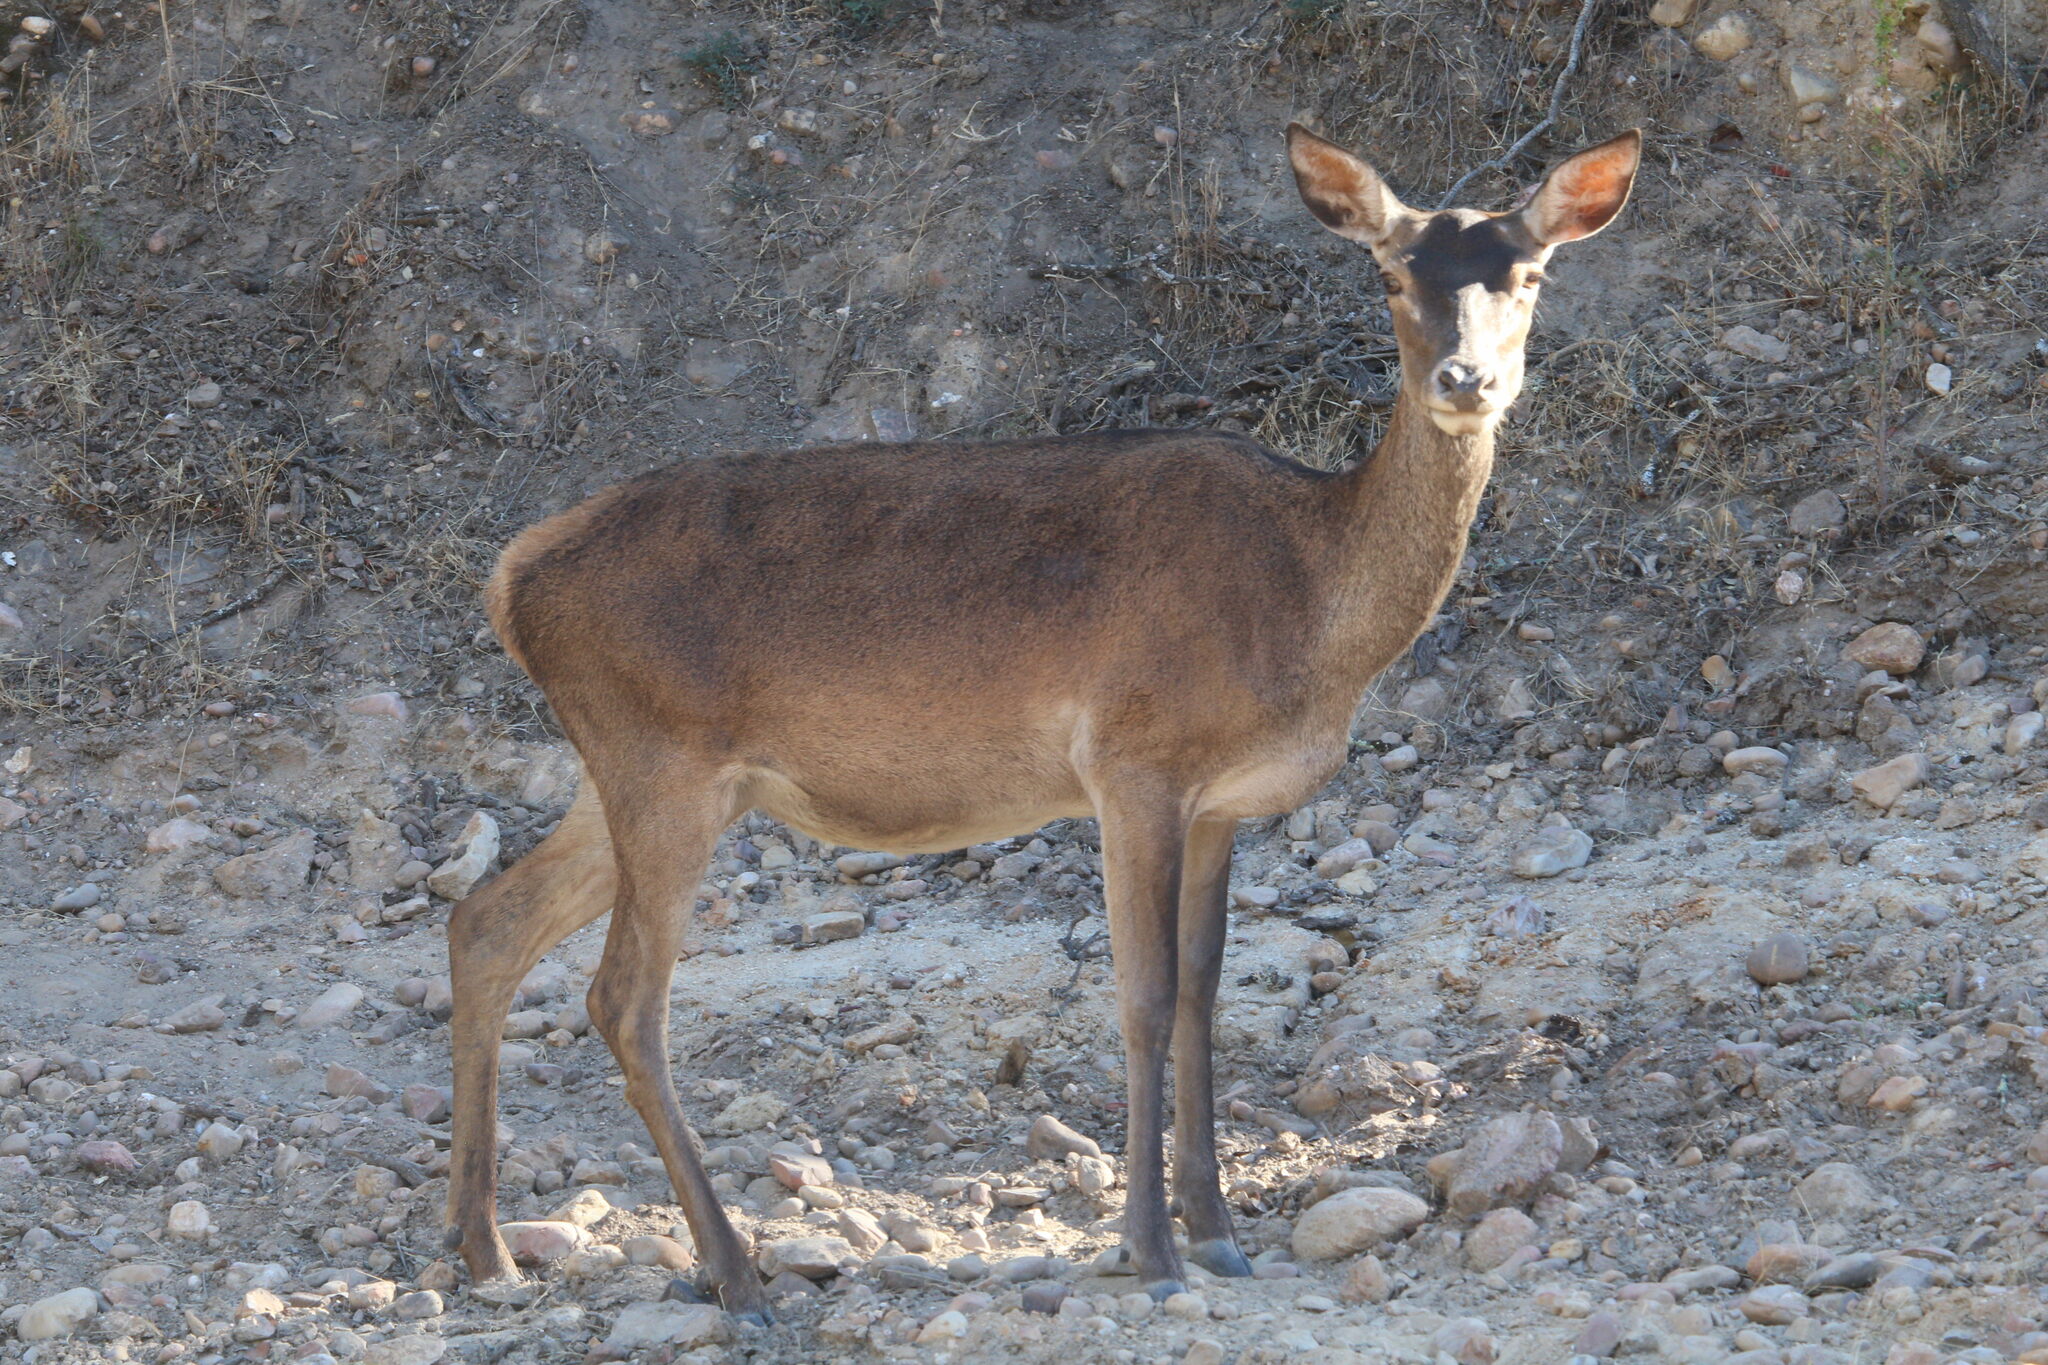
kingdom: Animalia
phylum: Chordata
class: Mammalia
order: Artiodactyla
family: Cervidae
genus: Cervus
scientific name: Cervus elaphus
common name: Red deer
